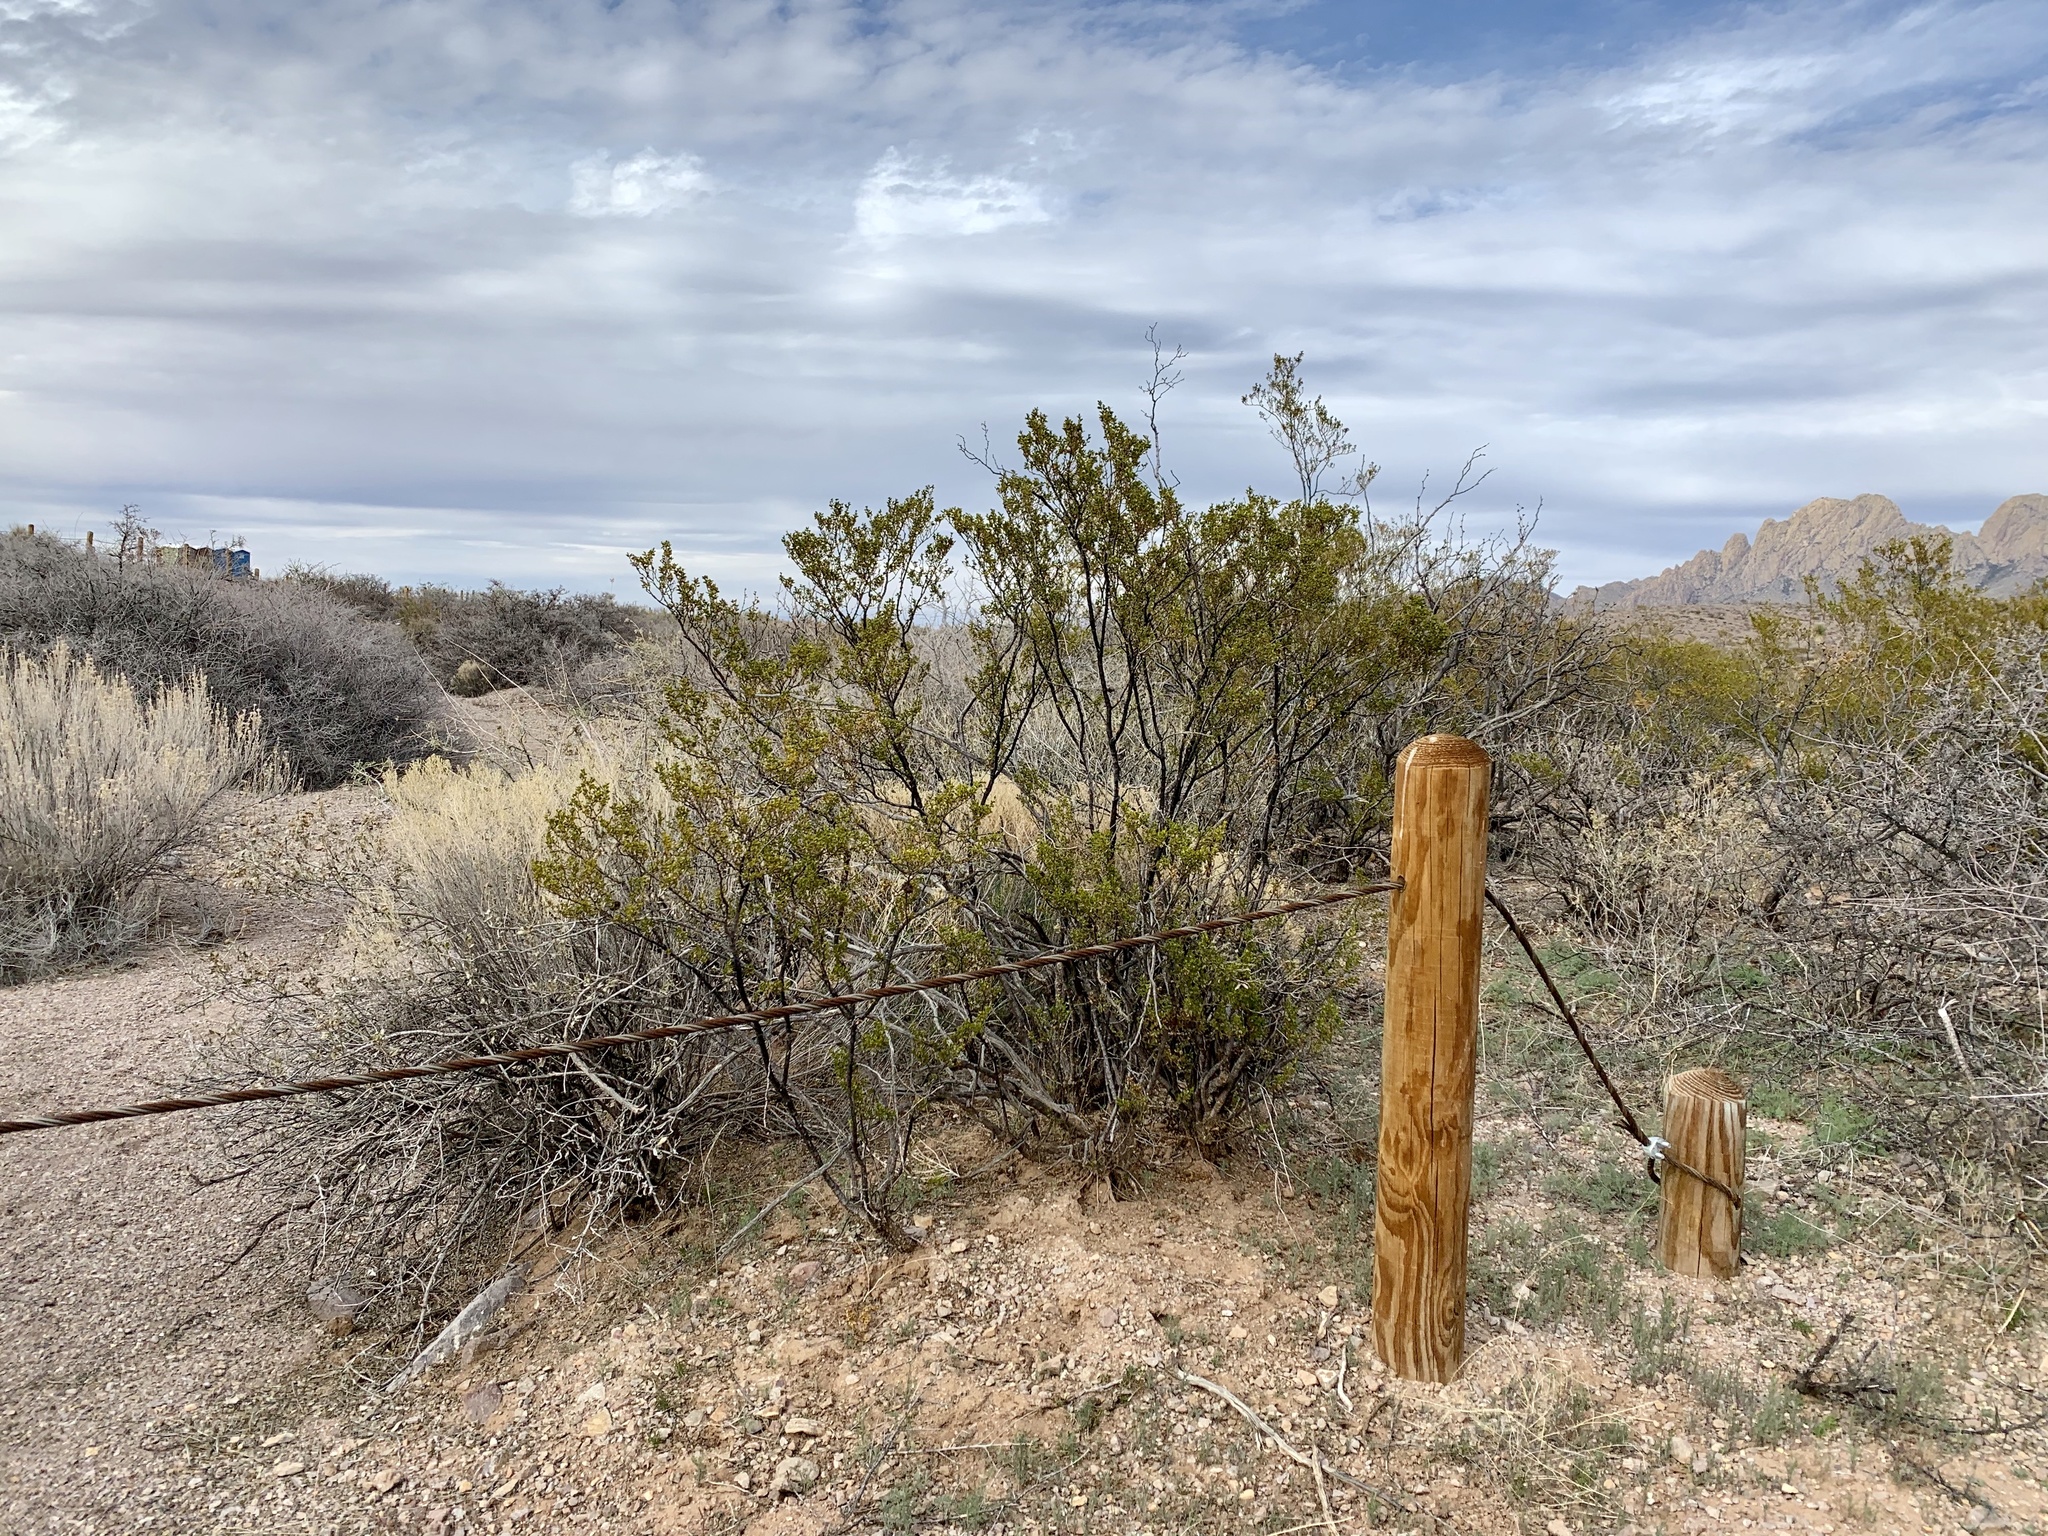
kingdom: Plantae
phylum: Tracheophyta
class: Magnoliopsida
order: Zygophyllales
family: Zygophyllaceae
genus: Larrea
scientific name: Larrea tridentata
